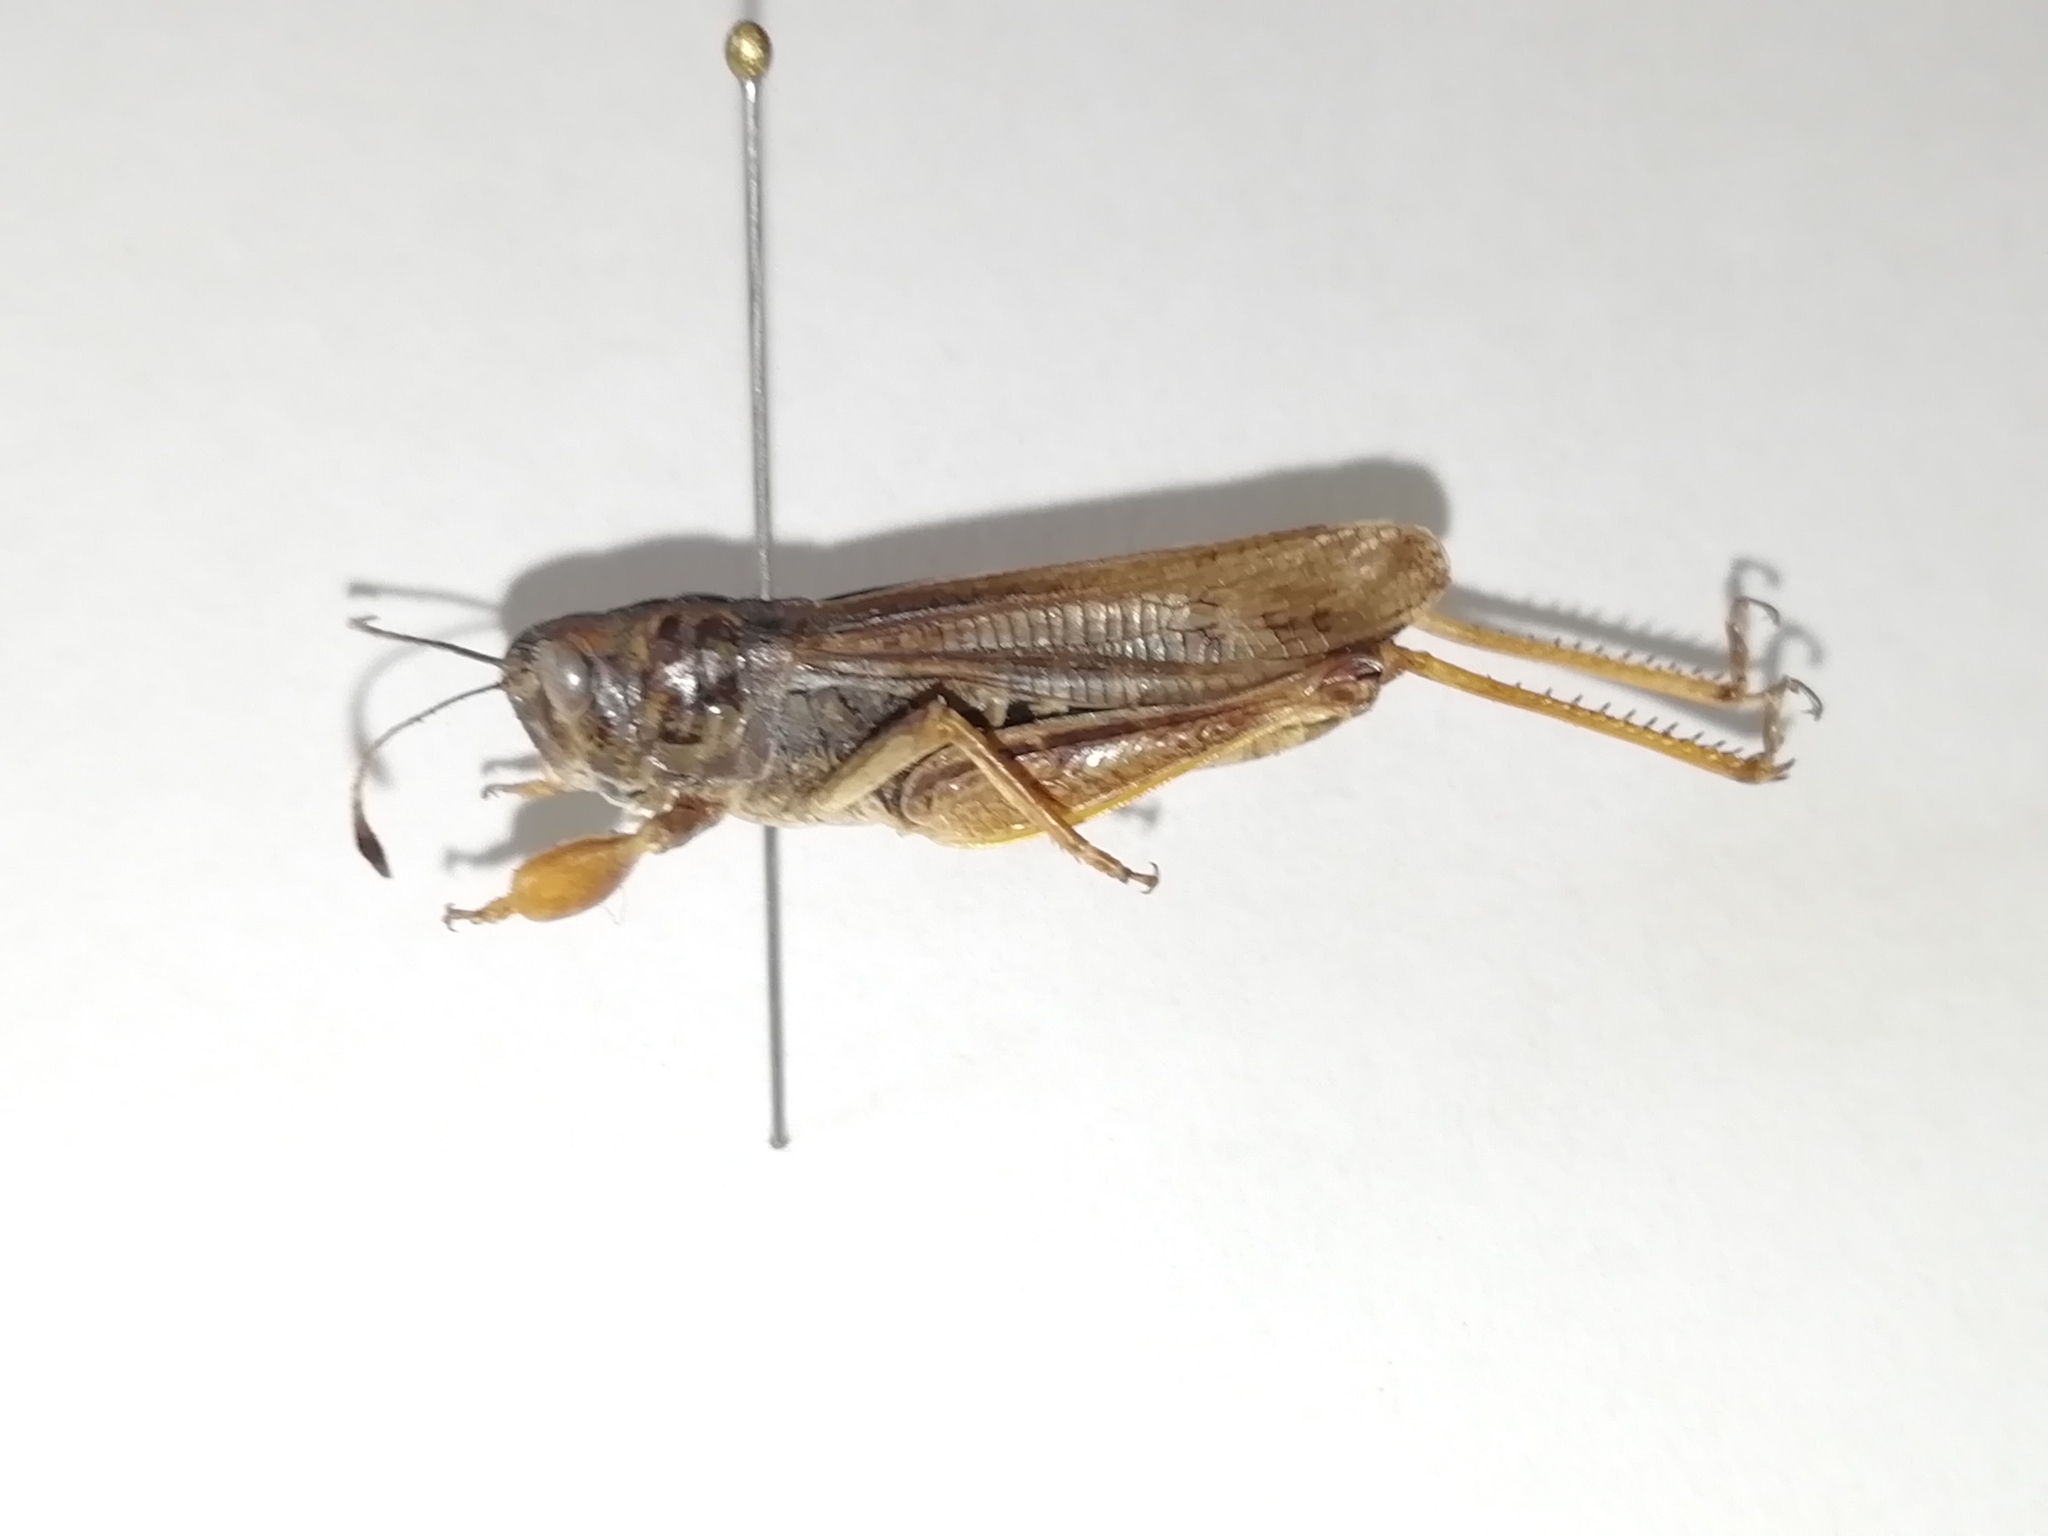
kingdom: Animalia
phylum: Arthropoda
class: Insecta
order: Orthoptera
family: Acrididae
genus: Gomphocerus
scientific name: Gomphocerus sibiricus
